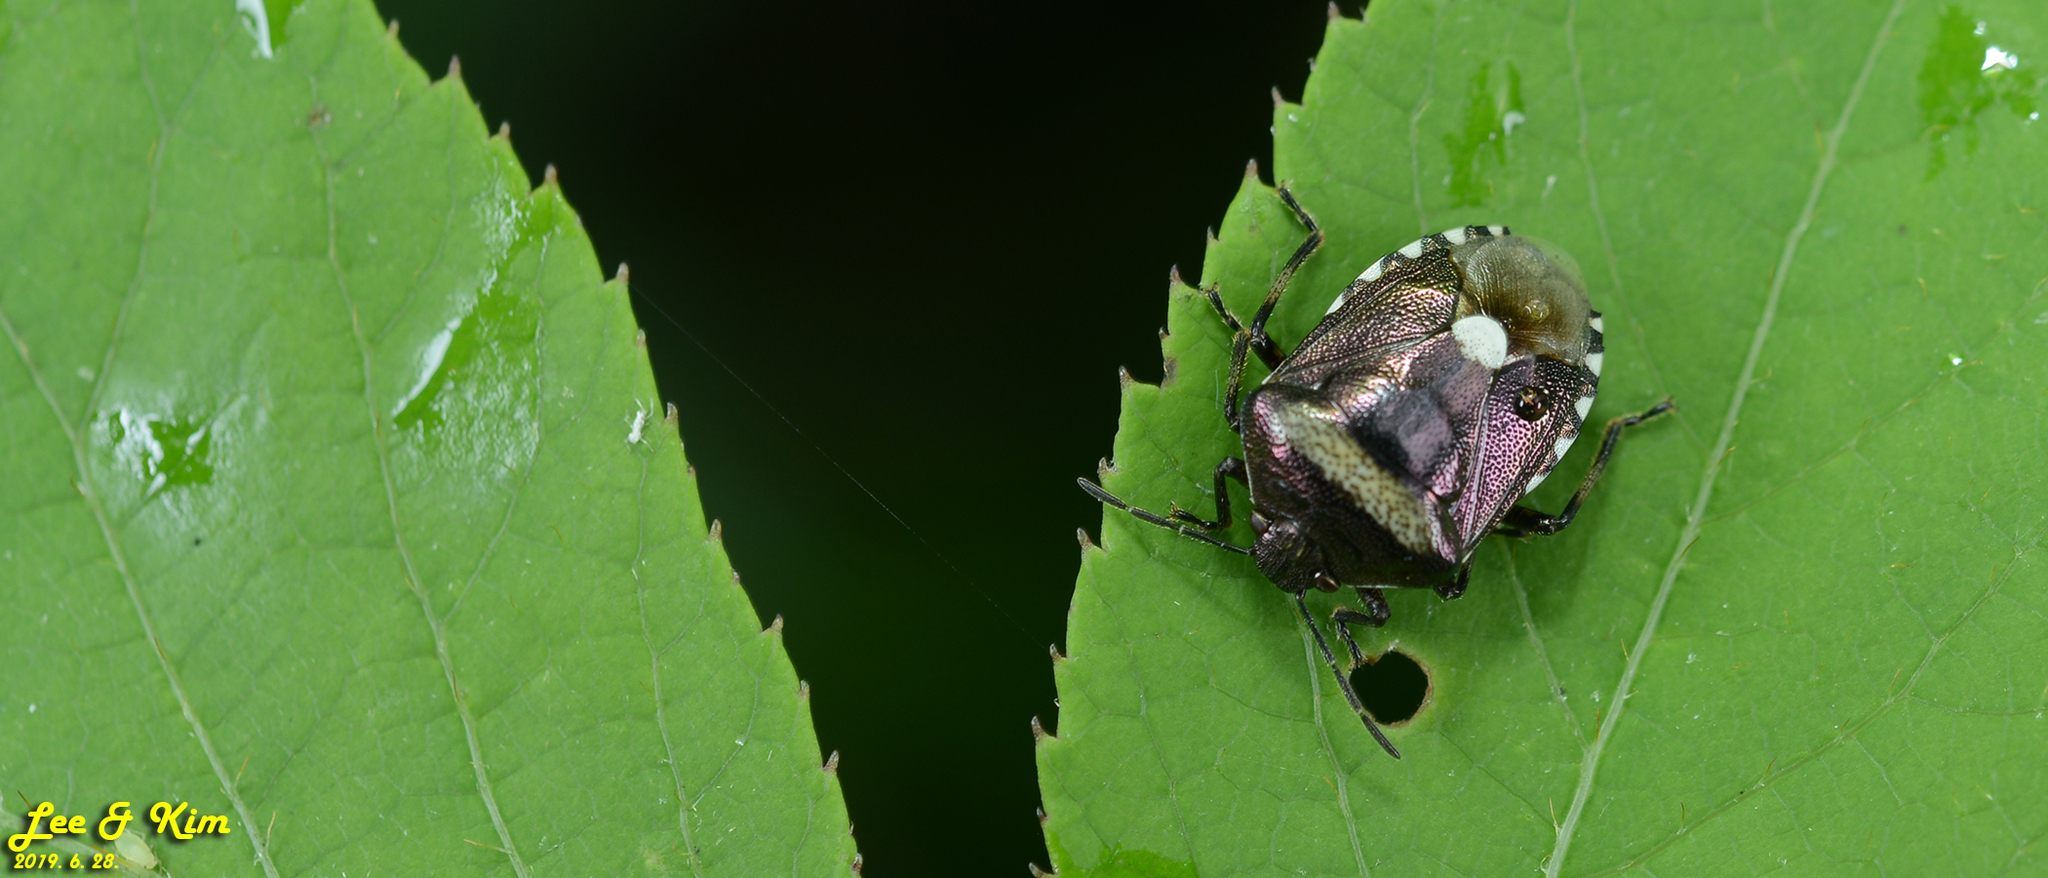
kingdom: Animalia
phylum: Arthropoda
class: Insecta
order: Hemiptera
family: Pentatomidae
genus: Menida
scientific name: Menida violacea
